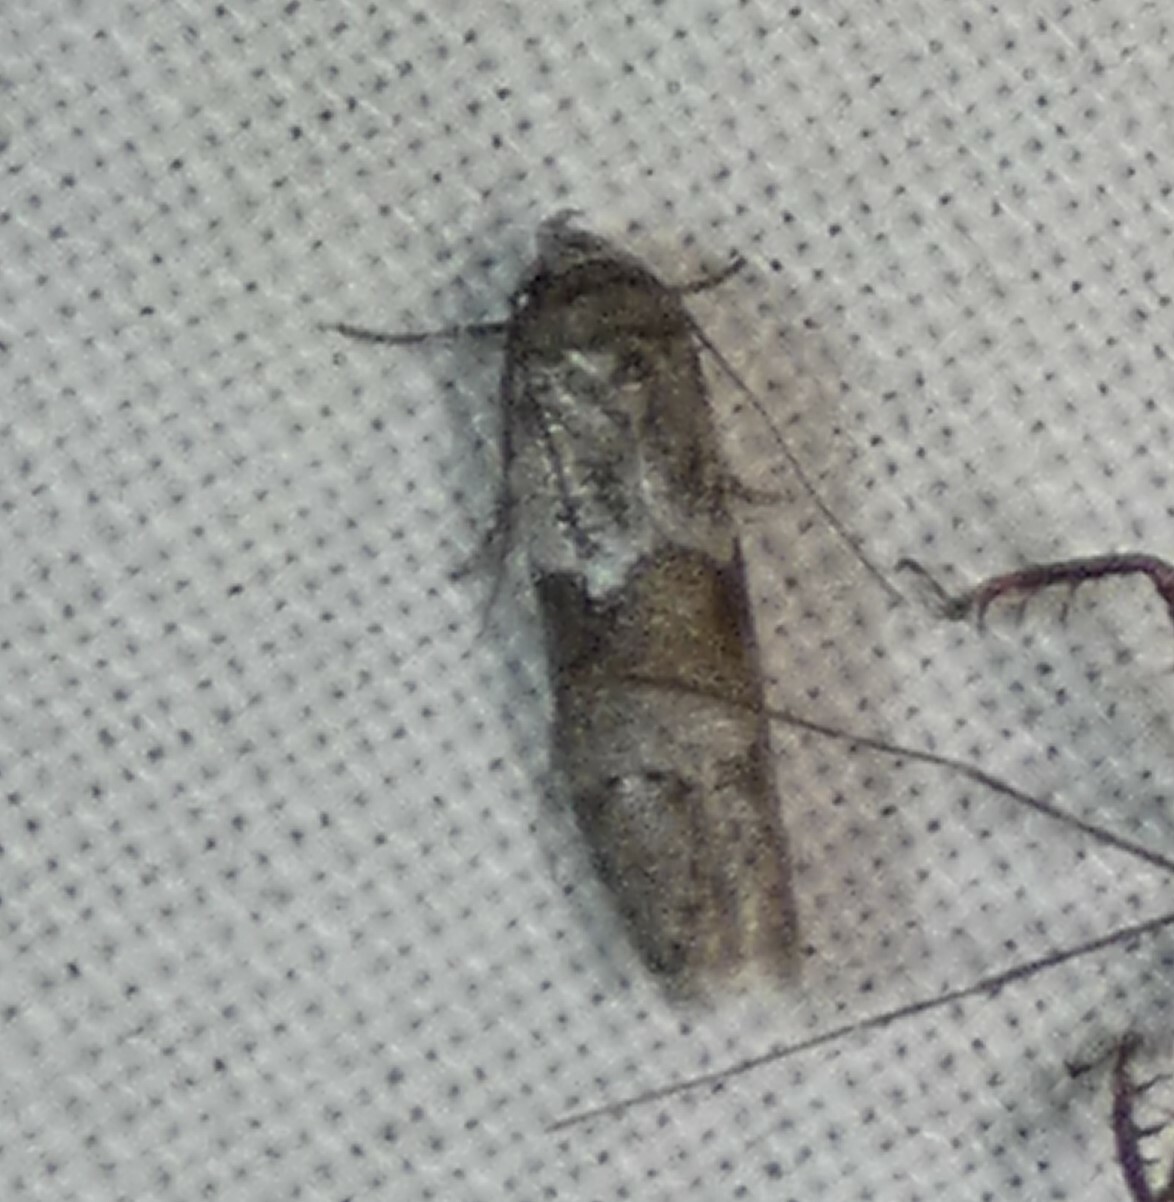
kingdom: Animalia
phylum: Arthropoda
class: Insecta
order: Lepidoptera
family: Blastobasidae
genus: Blastobasis
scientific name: Blastobasis glandulella
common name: Acorn moth
